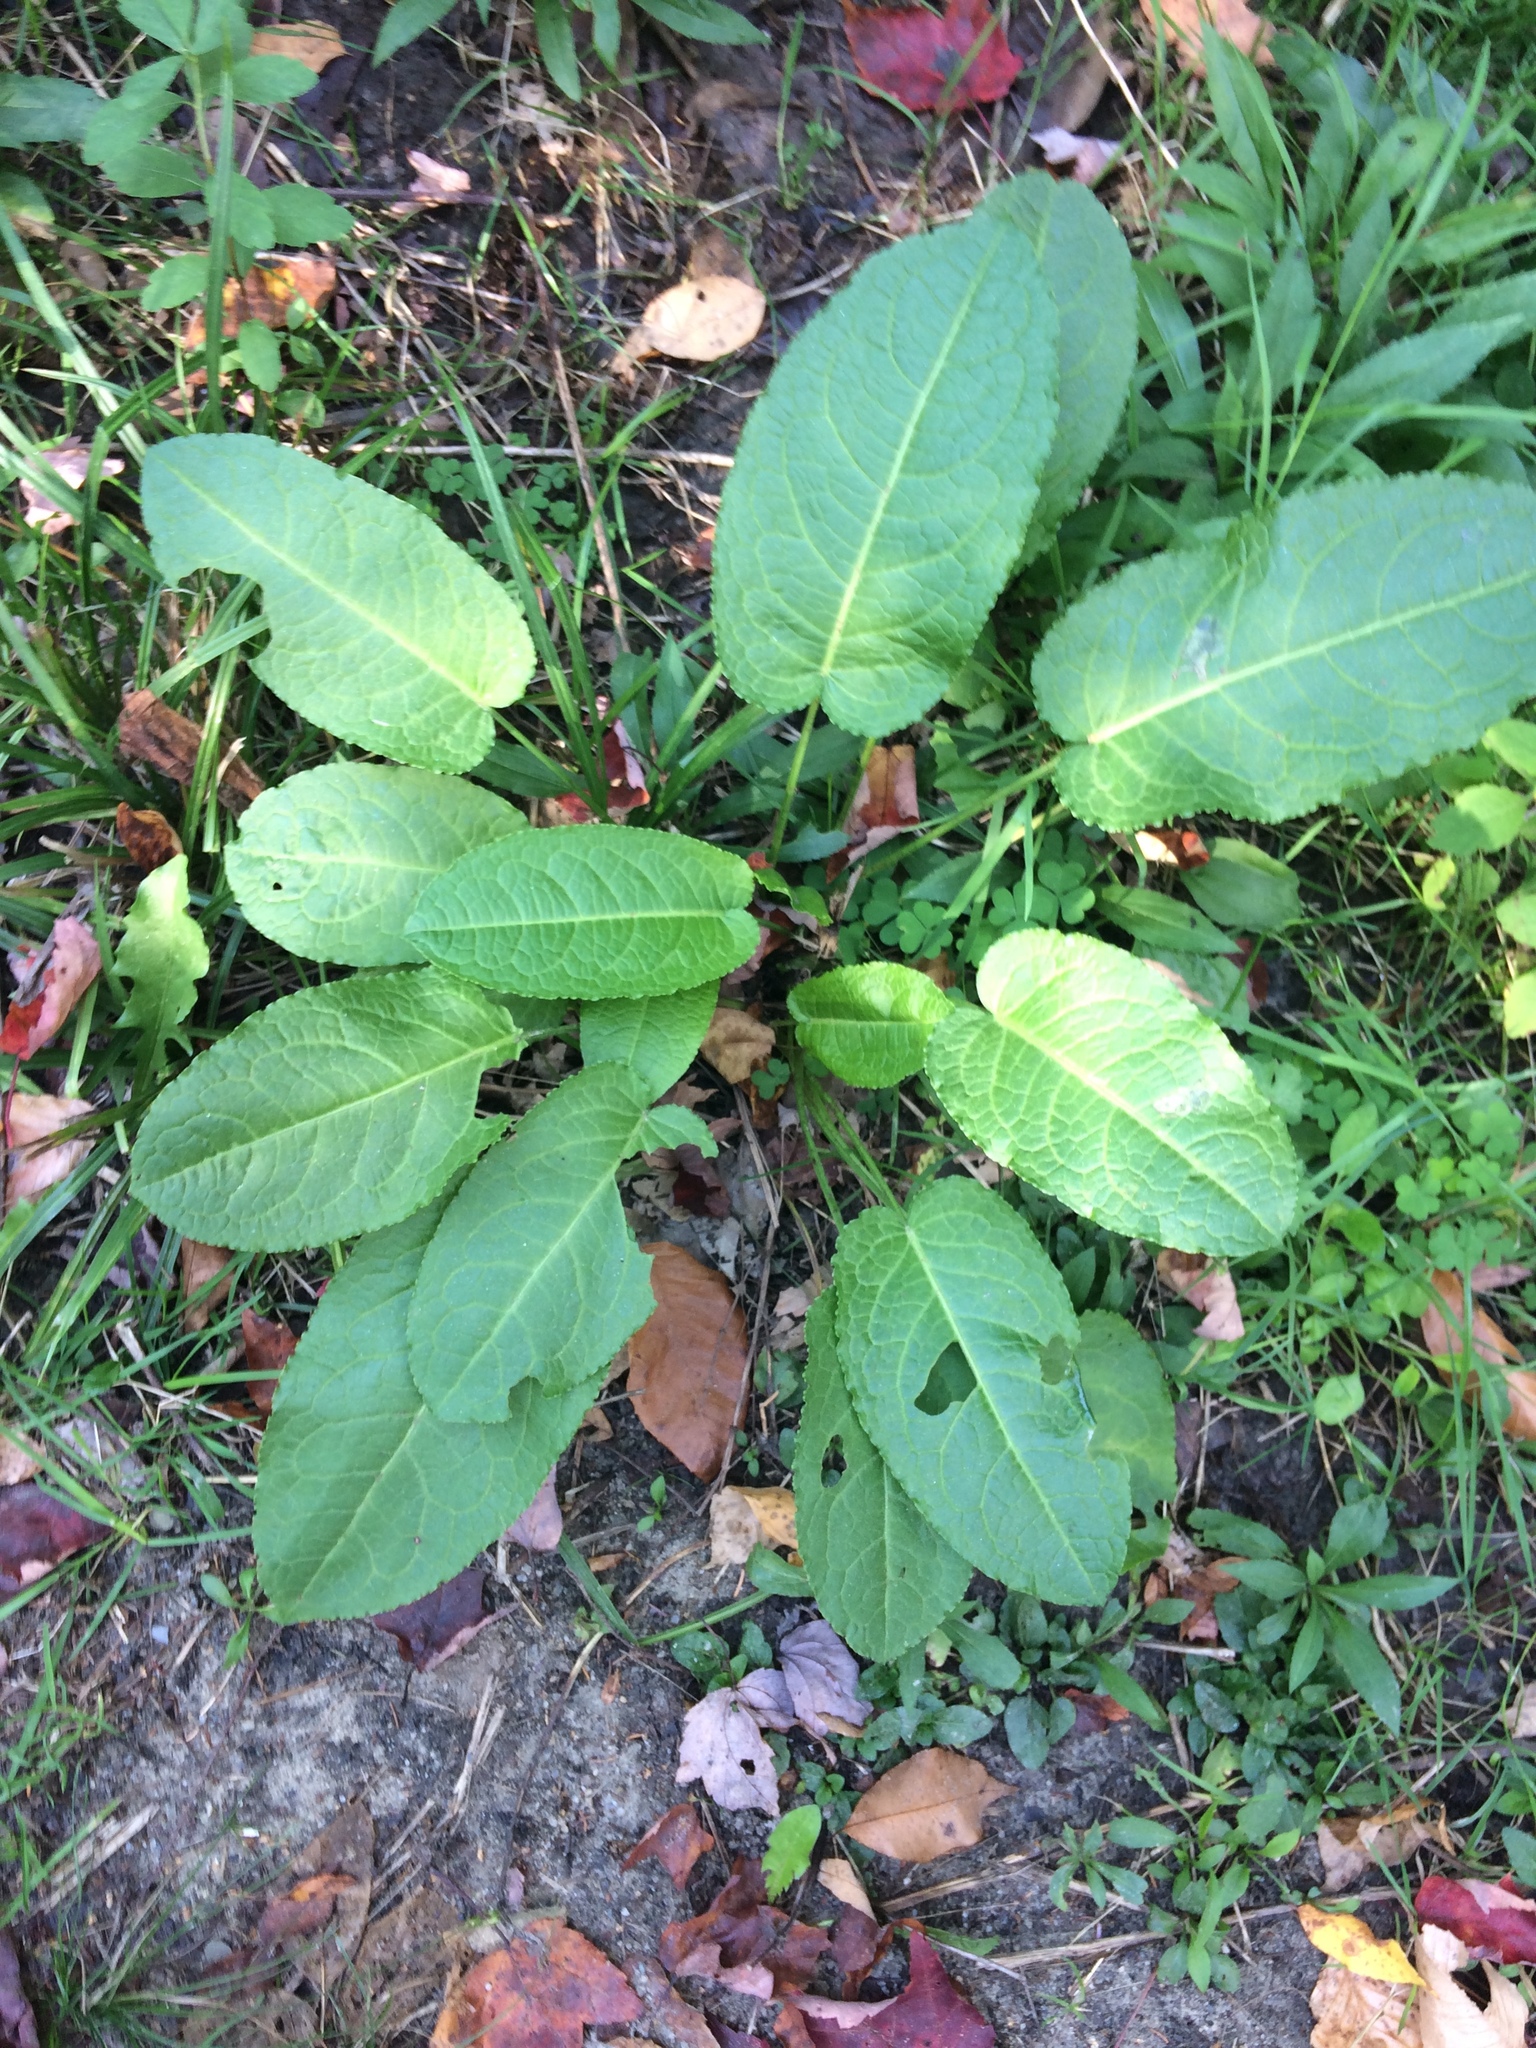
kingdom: Plantae
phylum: Tracheophyta
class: Magnoliopsida
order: Caryophyllales
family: Polygonaceae
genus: Rumex
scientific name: Rumex obtusifolius
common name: Bitter dock
